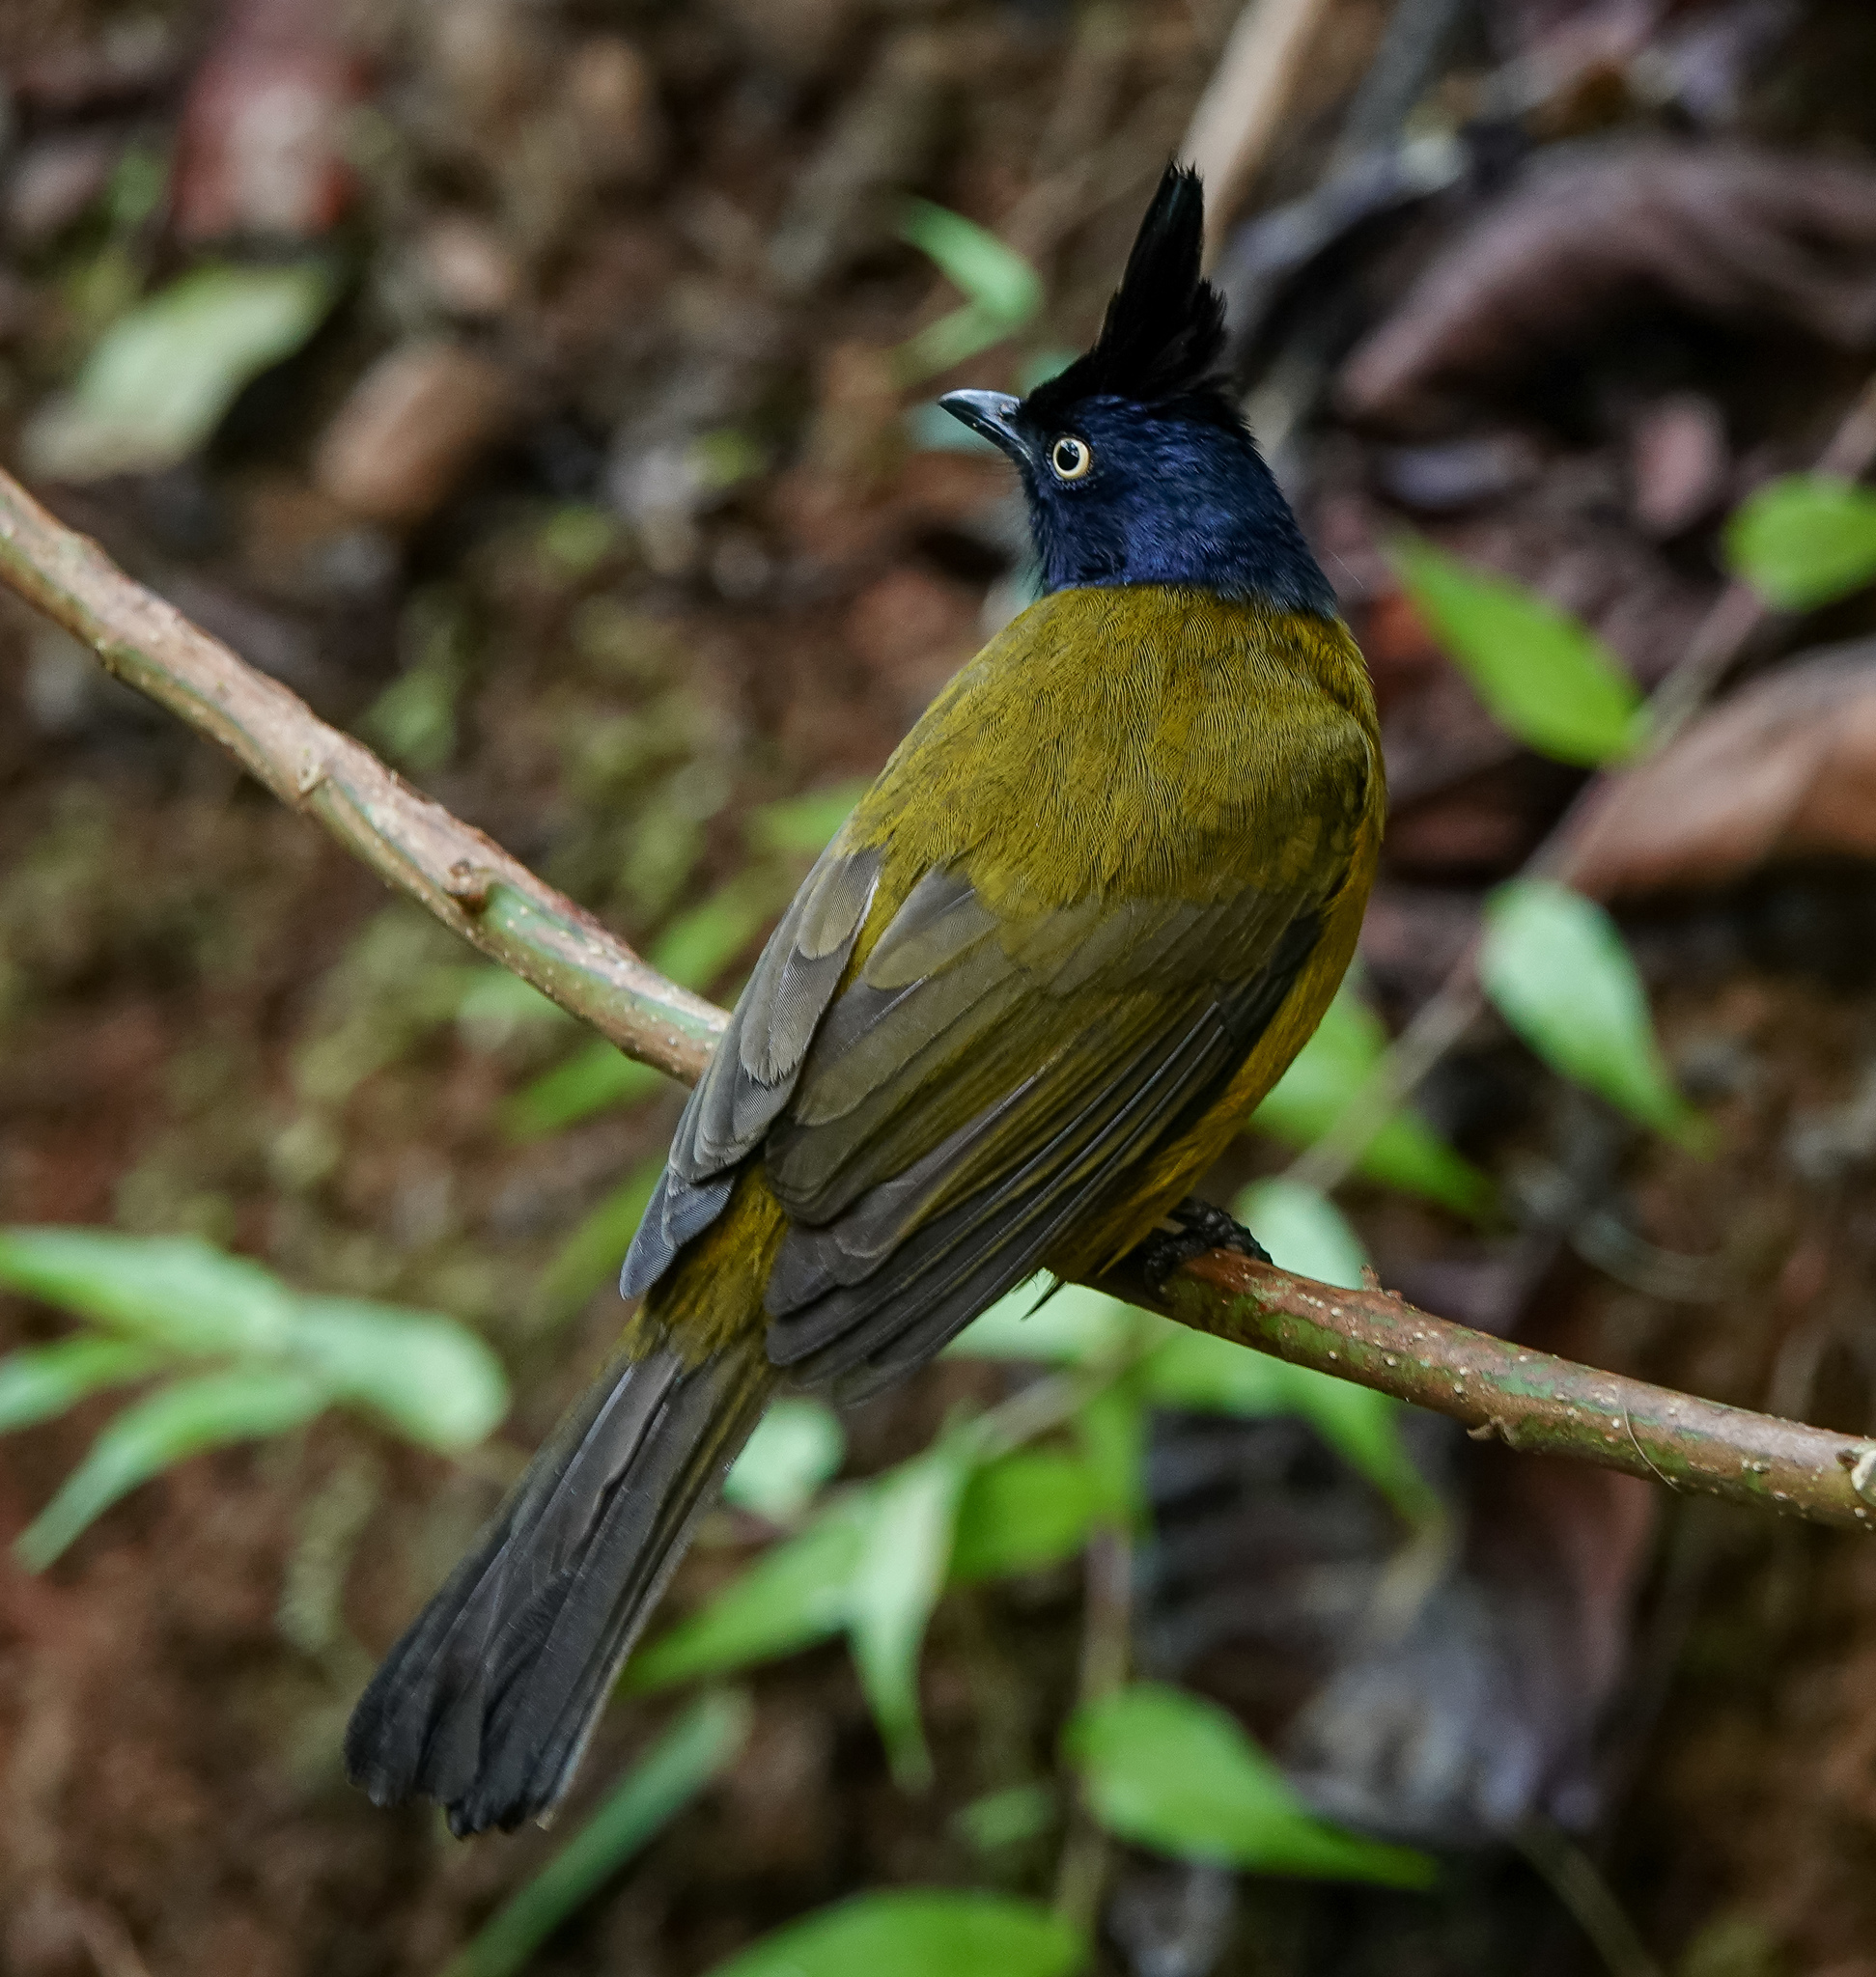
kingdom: Animalia
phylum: Chordata
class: Aves
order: Passeriformes
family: Pycnonotidae
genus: Pycnonotus
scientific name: Pycnonotus flaviventris
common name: Black-crested bulbul
